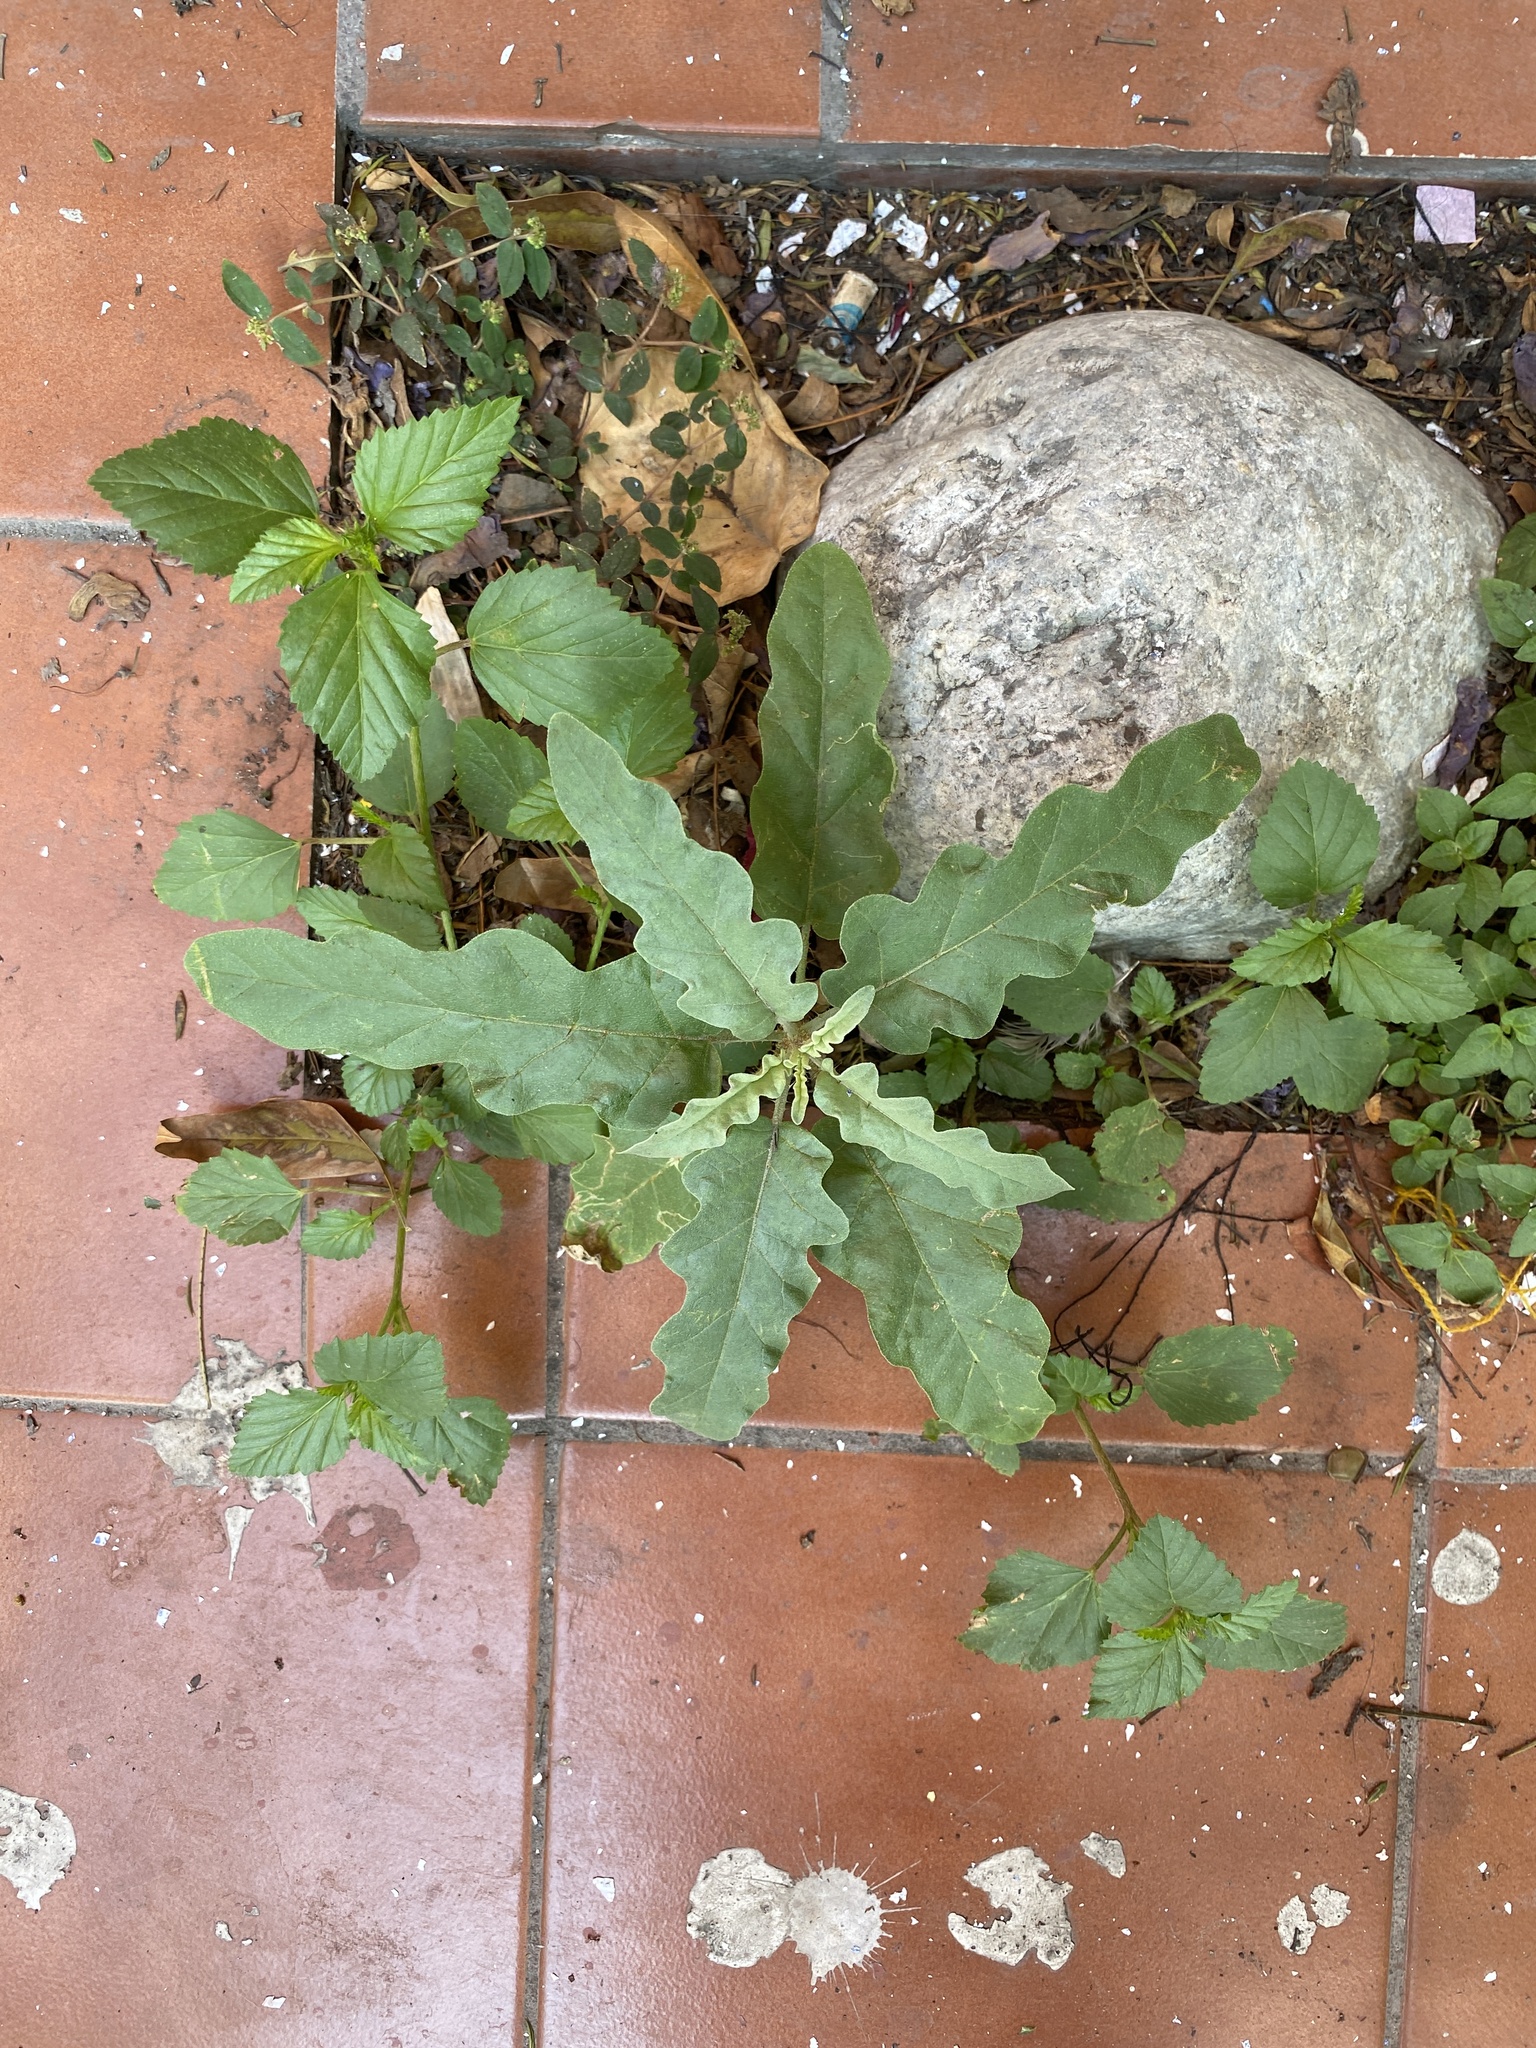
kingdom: Plantae
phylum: Tracheophyta
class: Magnoliopsida
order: Solanales
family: Solanaceae
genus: Solanum
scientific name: Solanum elaeagnifolium
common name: Silverleaf nightshade
